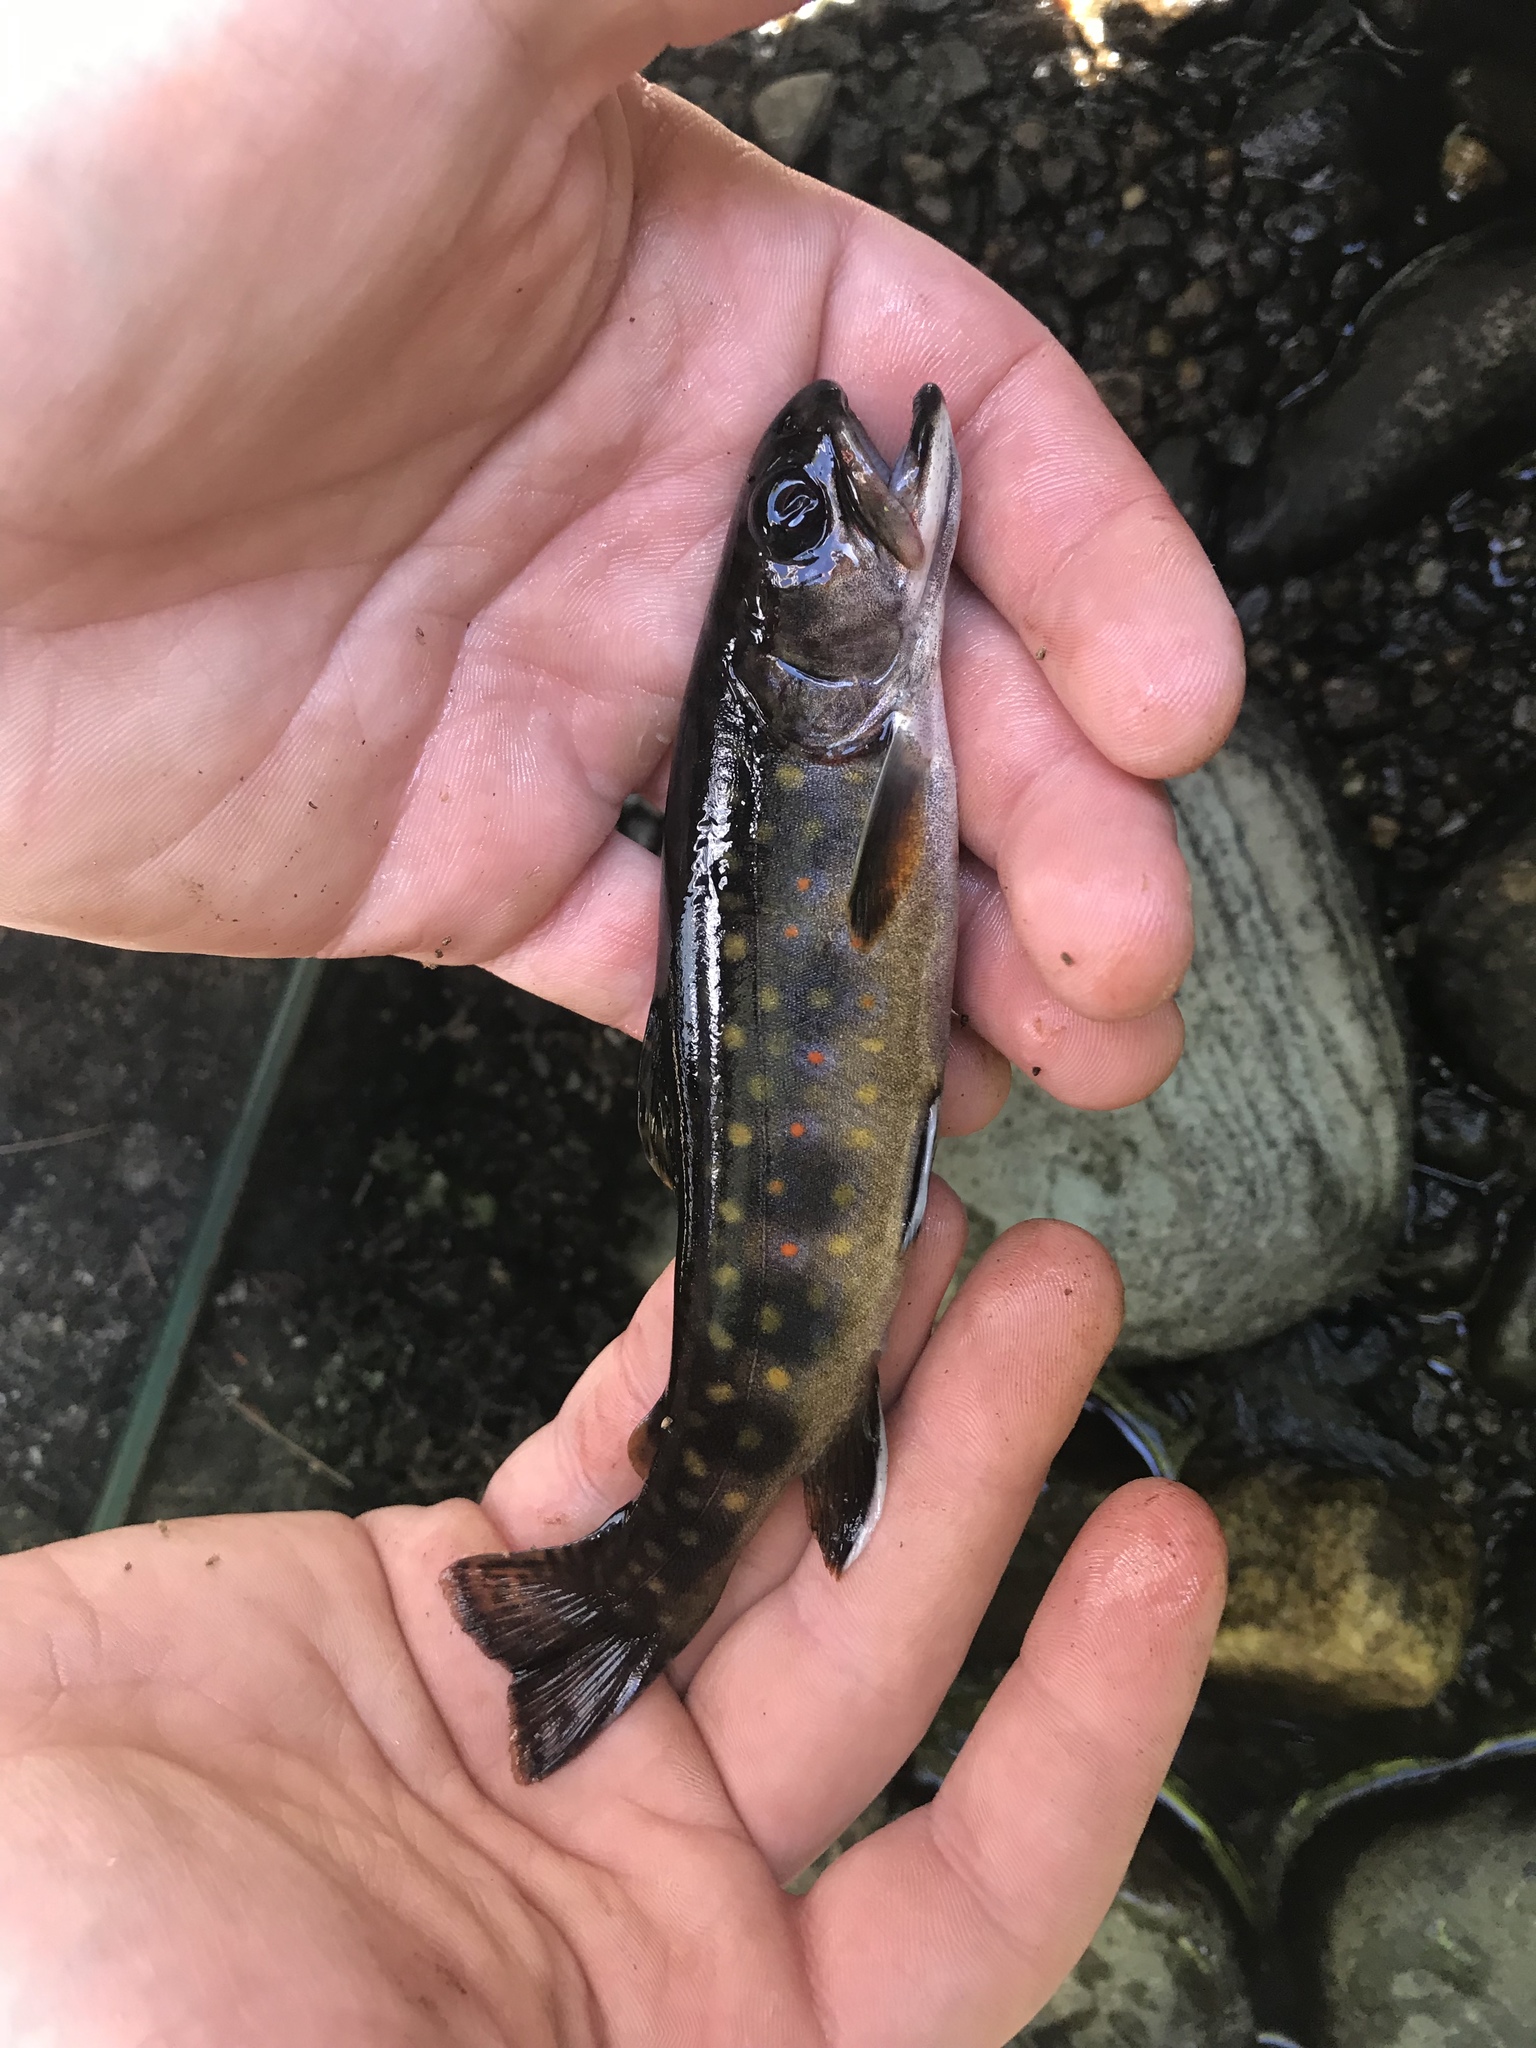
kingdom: Animalia
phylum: Chordata
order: Salmoniformes
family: Salmonidae
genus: Salvelinus
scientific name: Salvelinus fontinalis
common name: Brook trout
